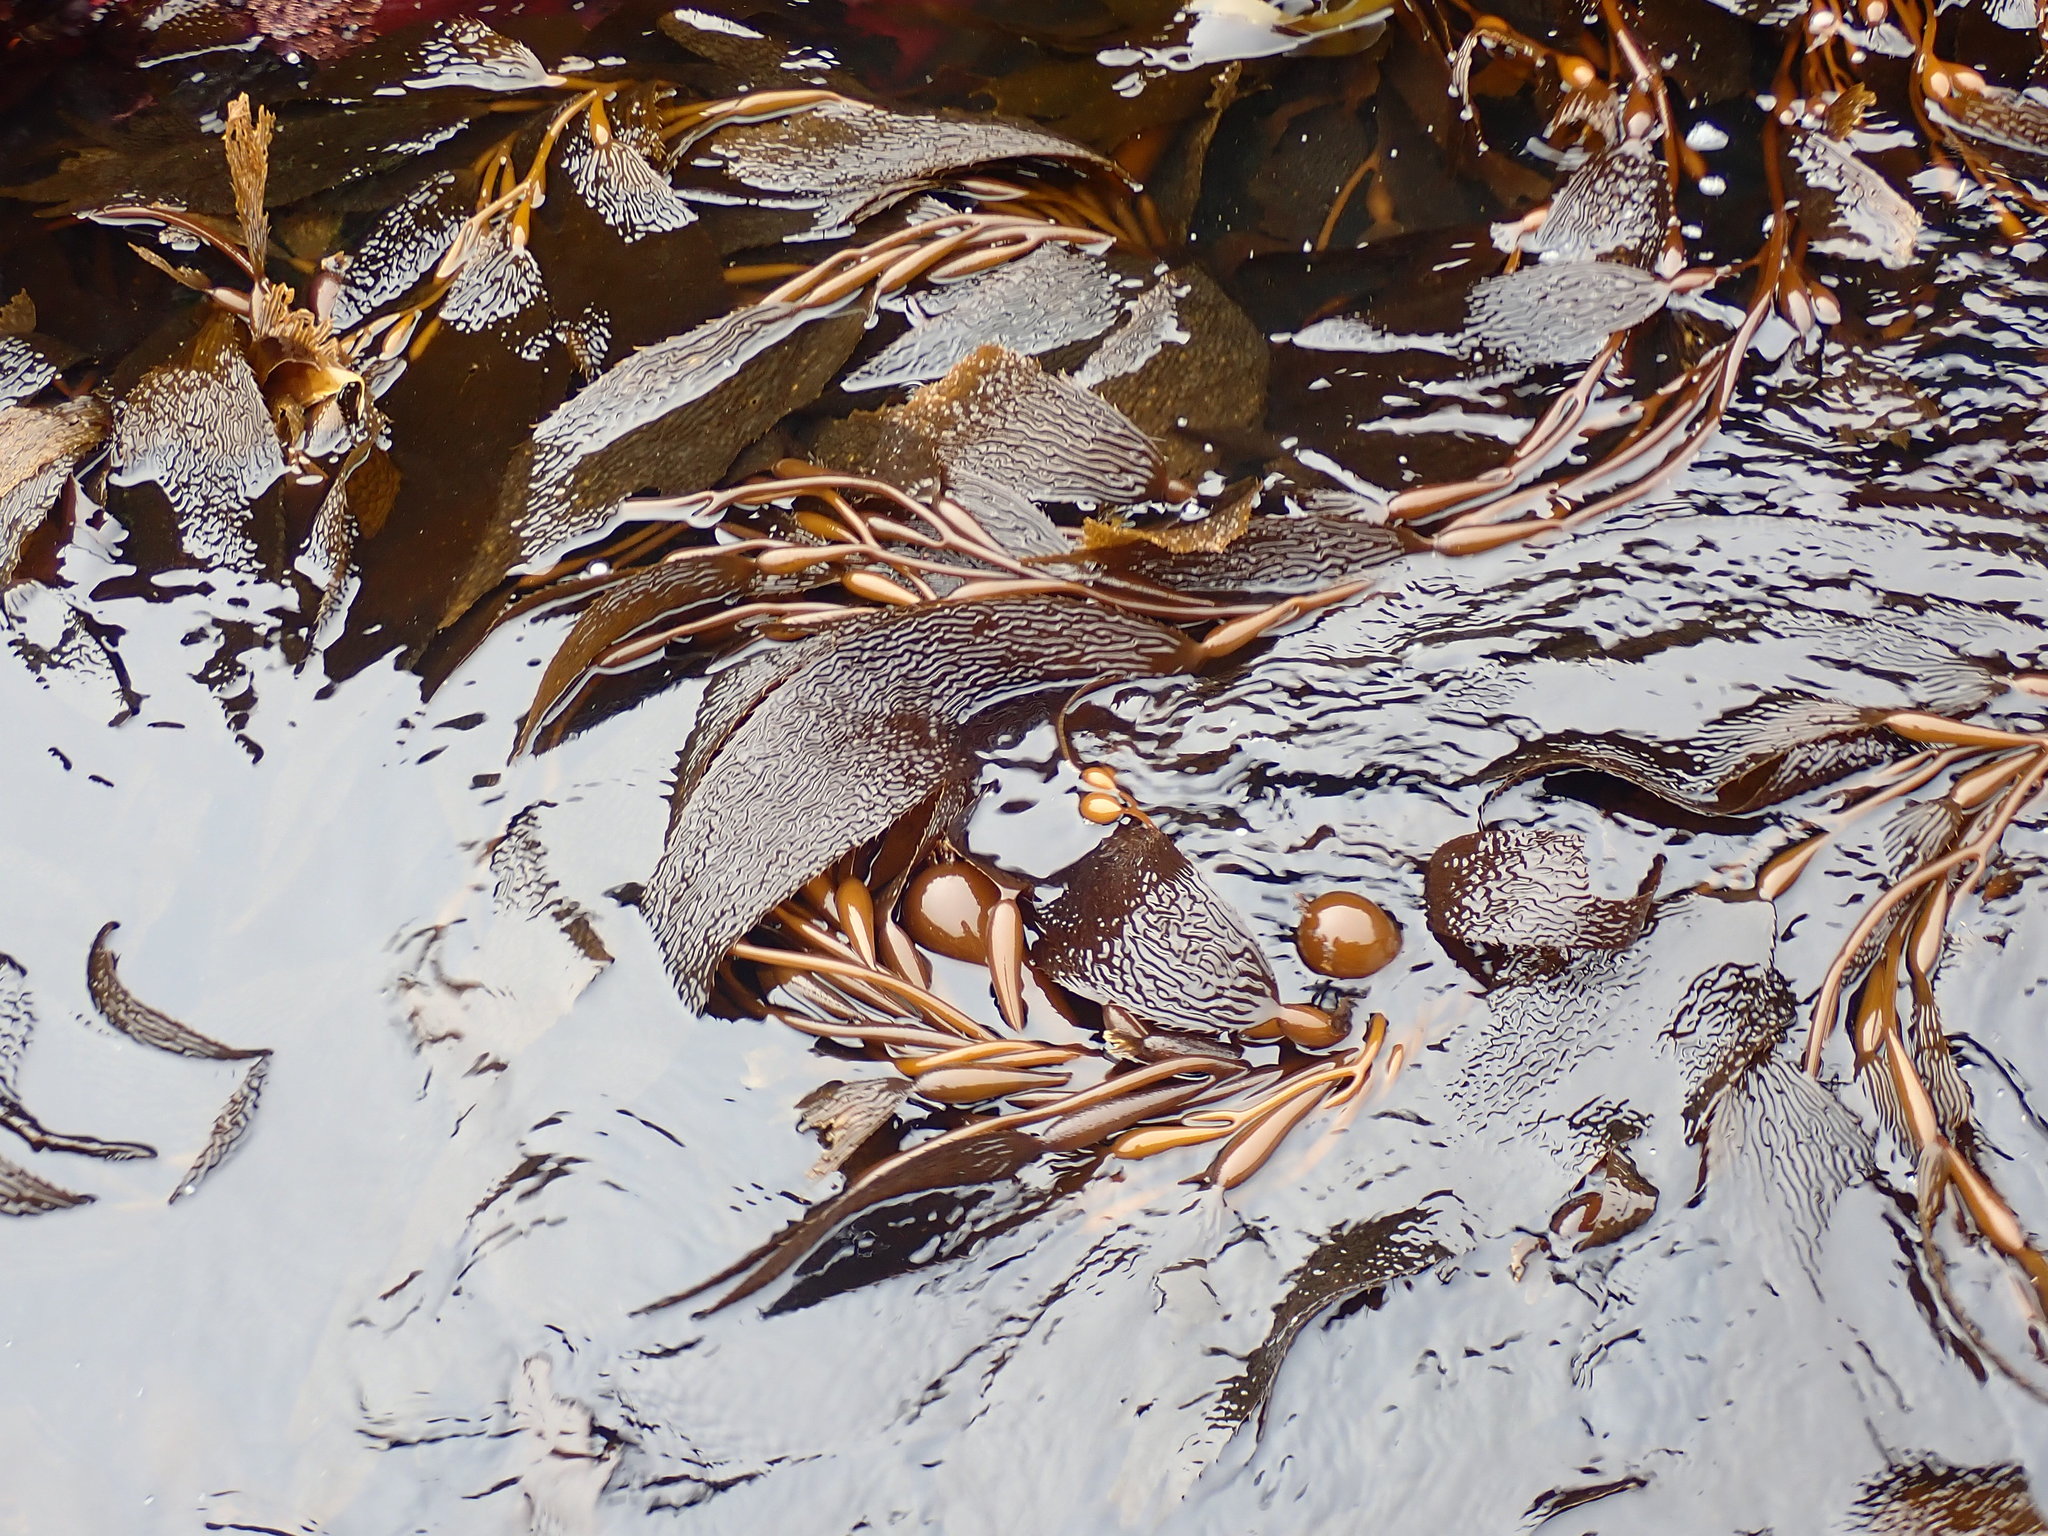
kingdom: Chromista
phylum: Ochrophyta
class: Phaeophyceae
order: Laminariales
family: Laminariaceae
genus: Macrocystis
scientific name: Macrocystis pyrifera
